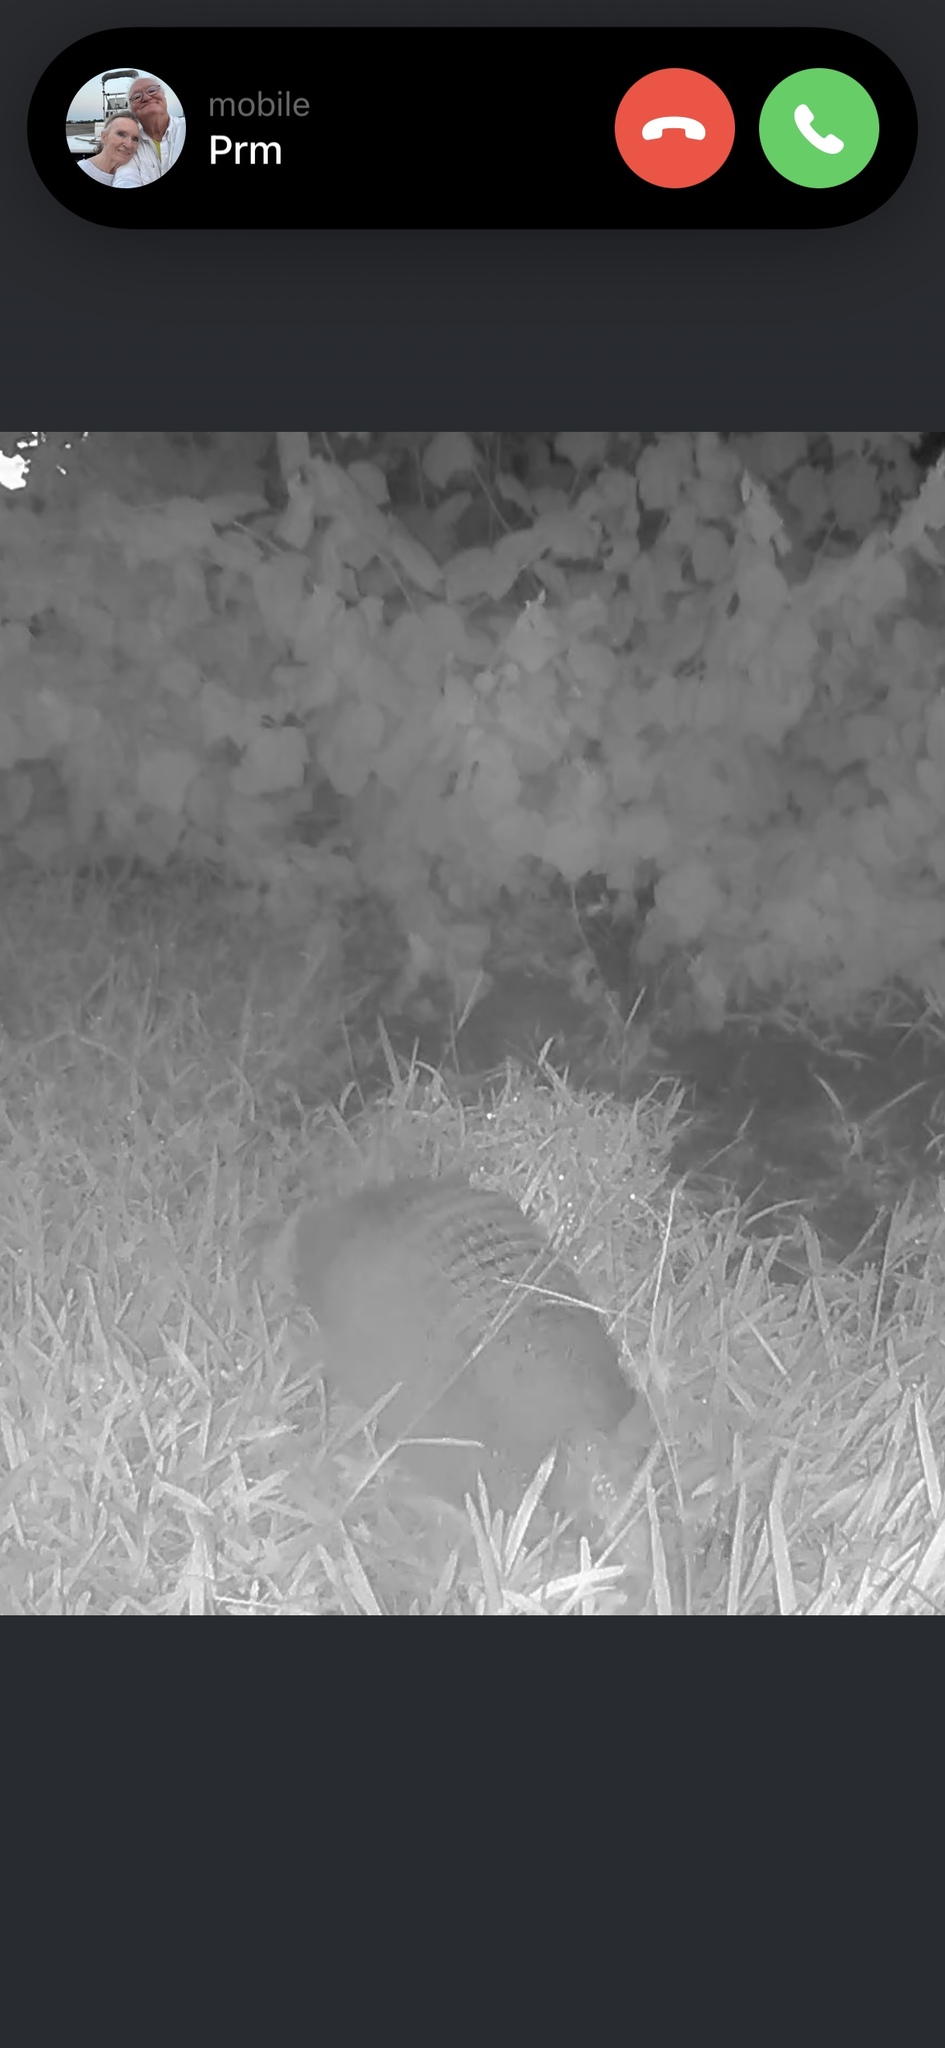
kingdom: Animalia
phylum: Chordata
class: Mammalia
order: Cingulata
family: Dasypodidae
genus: Dasypus
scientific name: Dasypus novemcinctus
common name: Nine-banded armadillo
